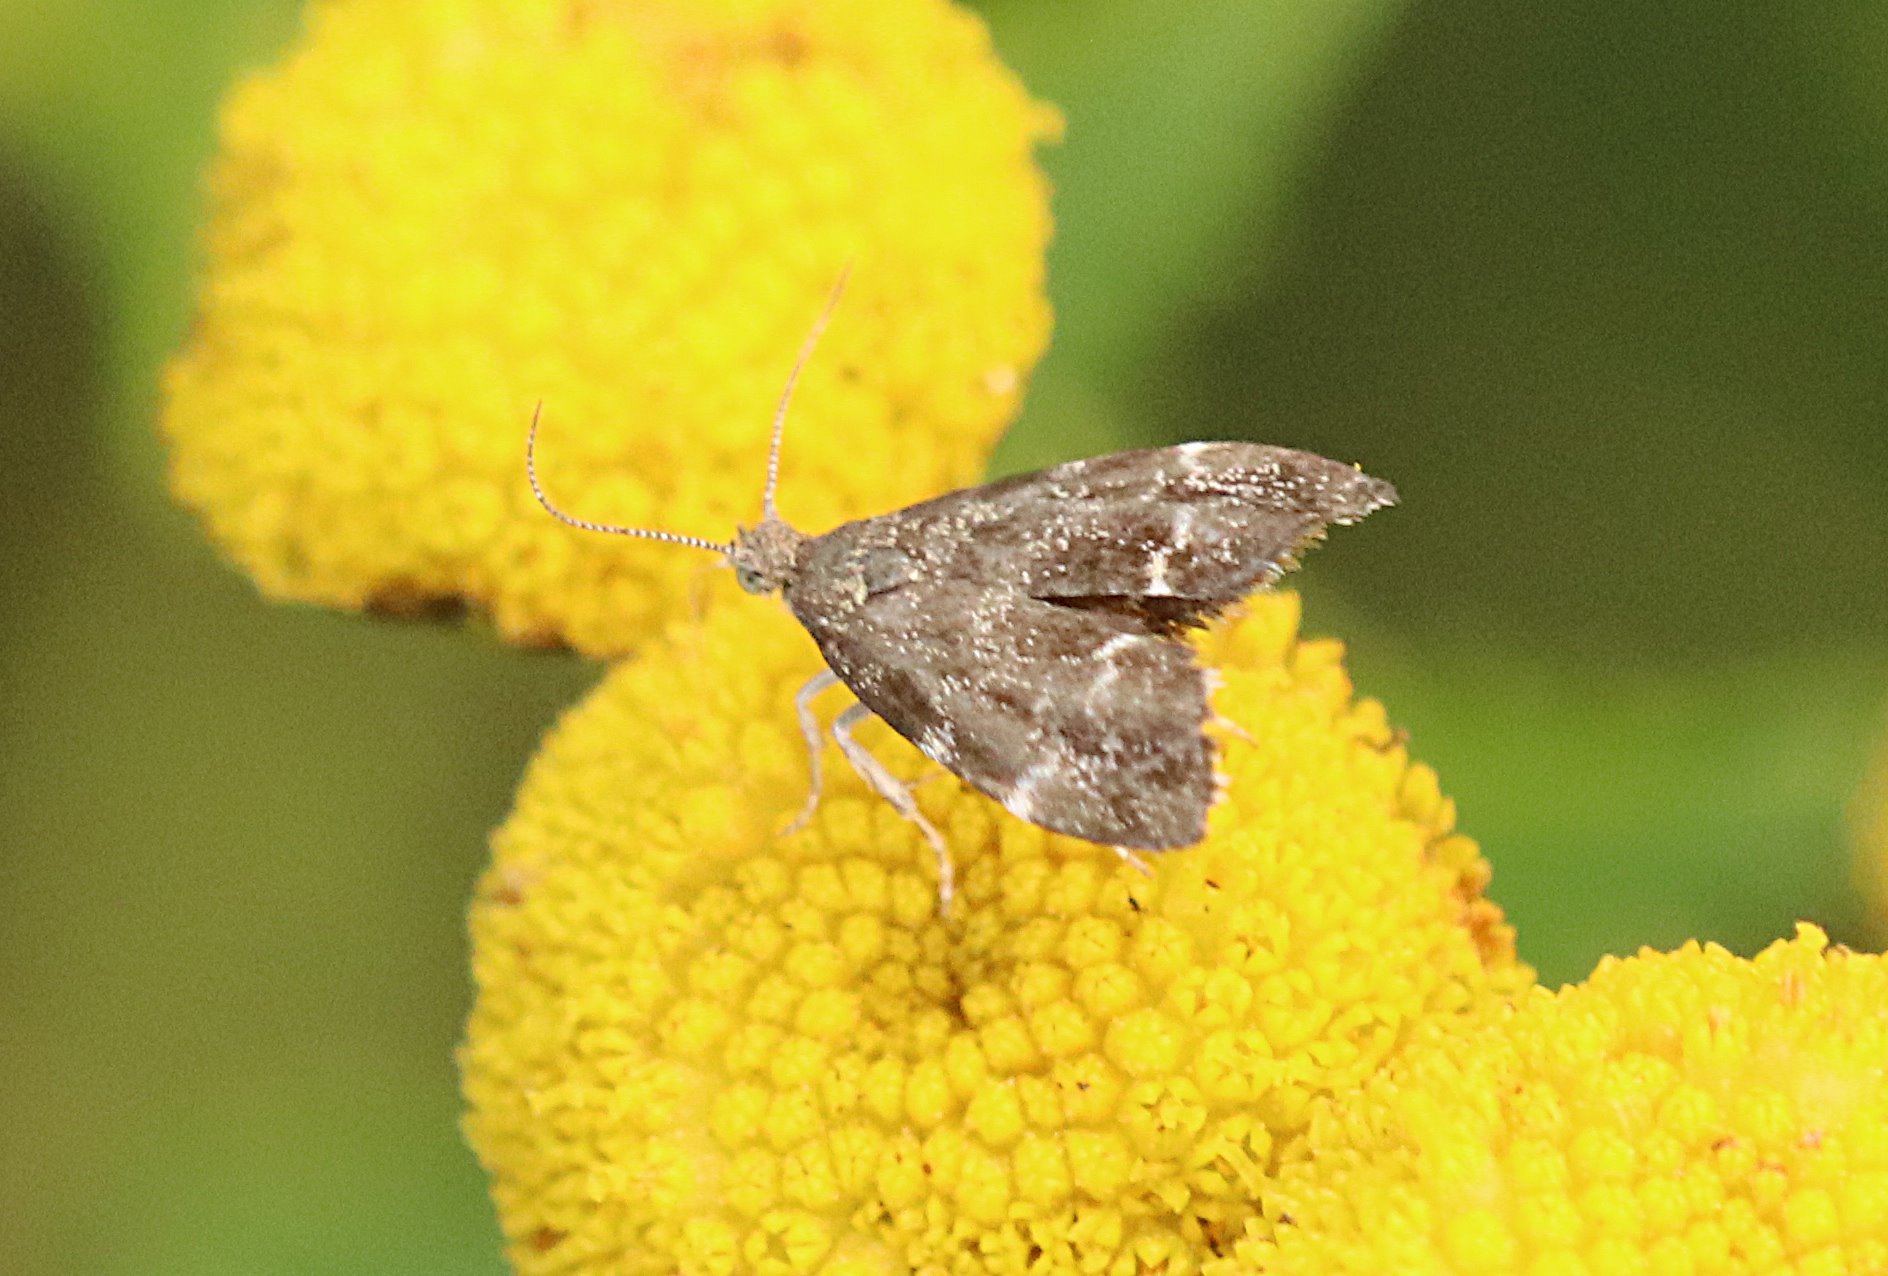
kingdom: Animalia
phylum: Arthropoda
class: Insecta
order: Lepidoptera
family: Choreutidae
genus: Anthophila
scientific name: Anthophila fabriciana
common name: Nettle-tap
